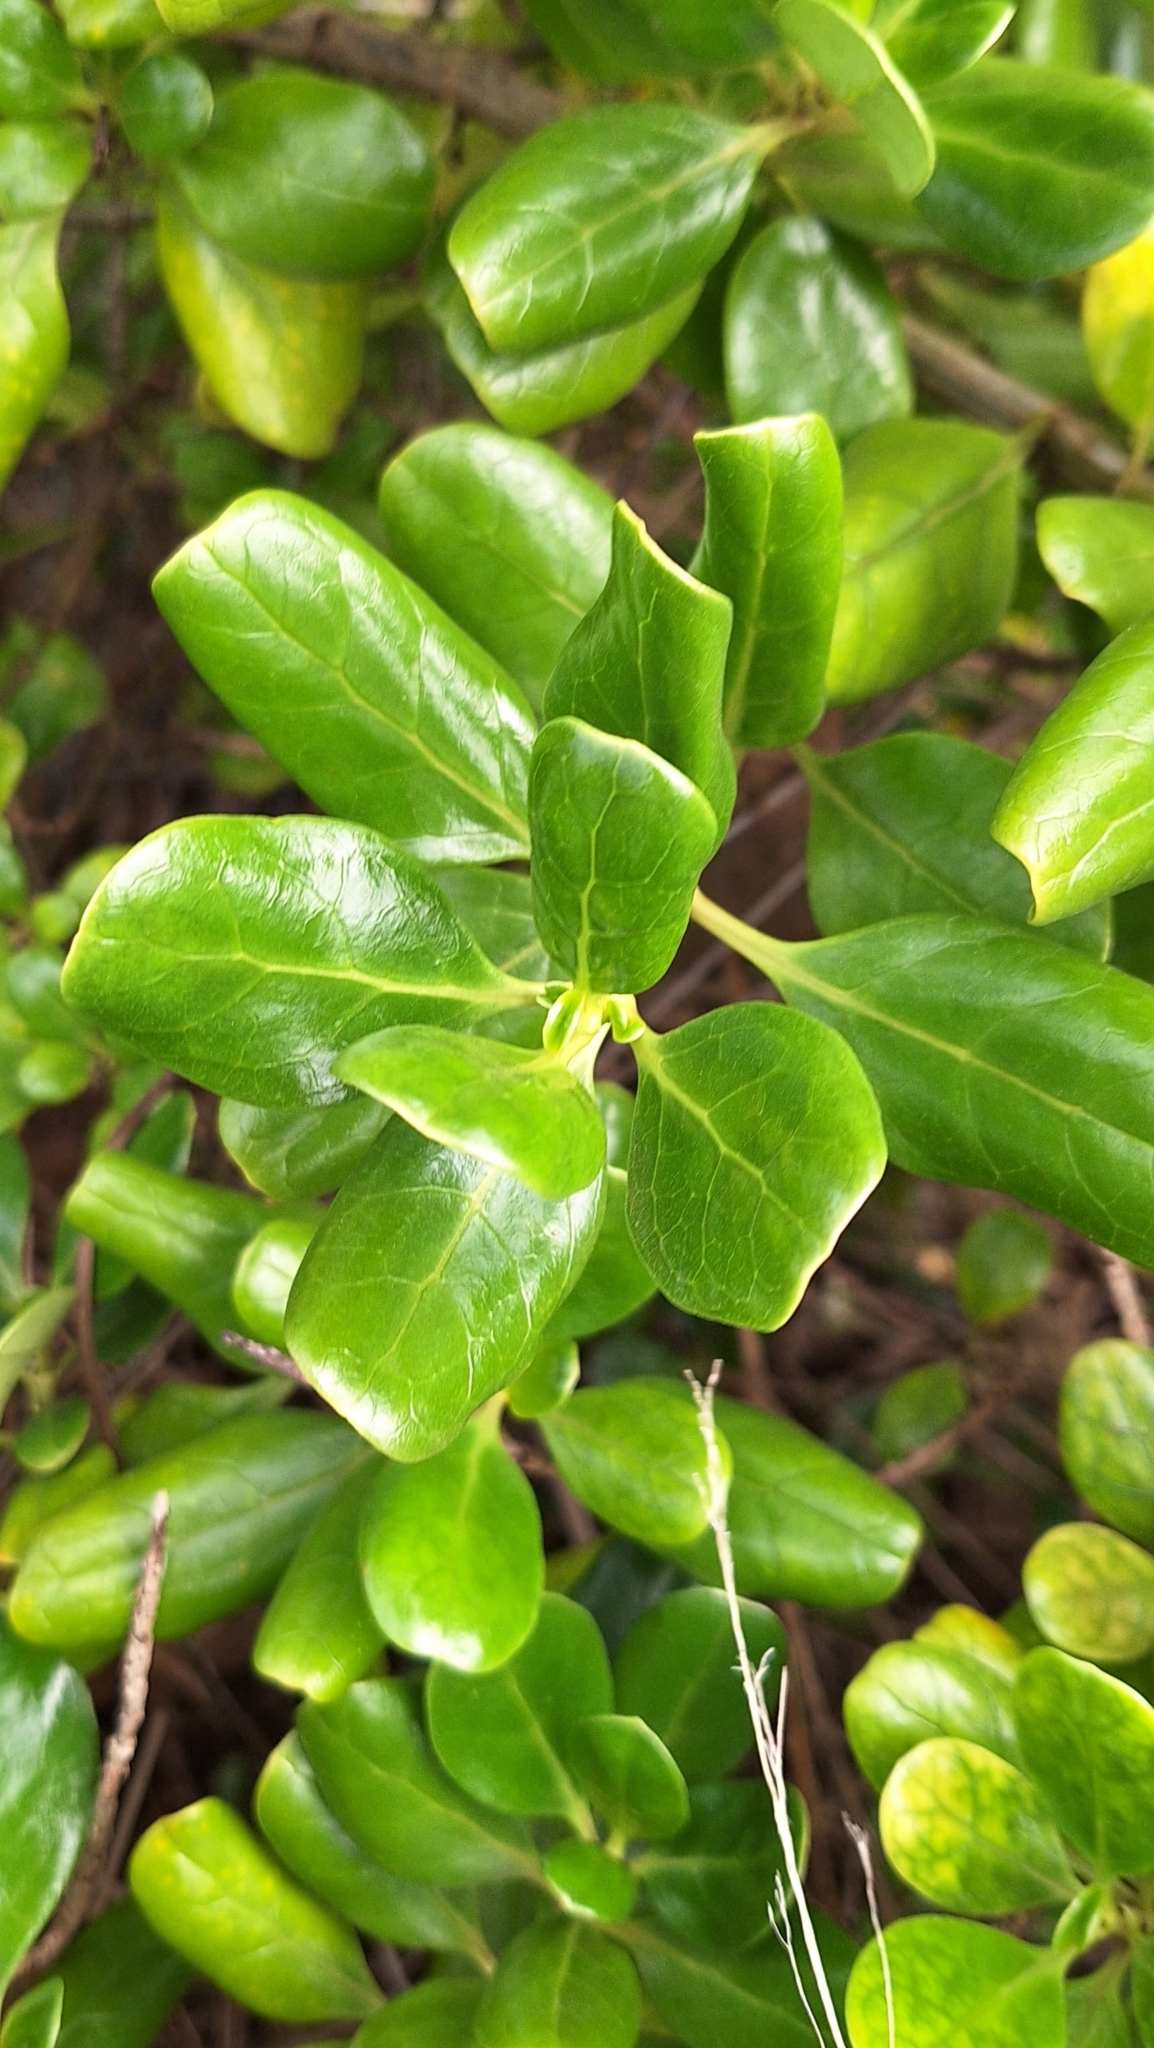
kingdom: Plantae
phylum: Tracheophyta
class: Magnoliopsida
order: Gentianales
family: Rubiaceae
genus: Coprosma
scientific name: Coprosma repens
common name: Tree bedstraw
